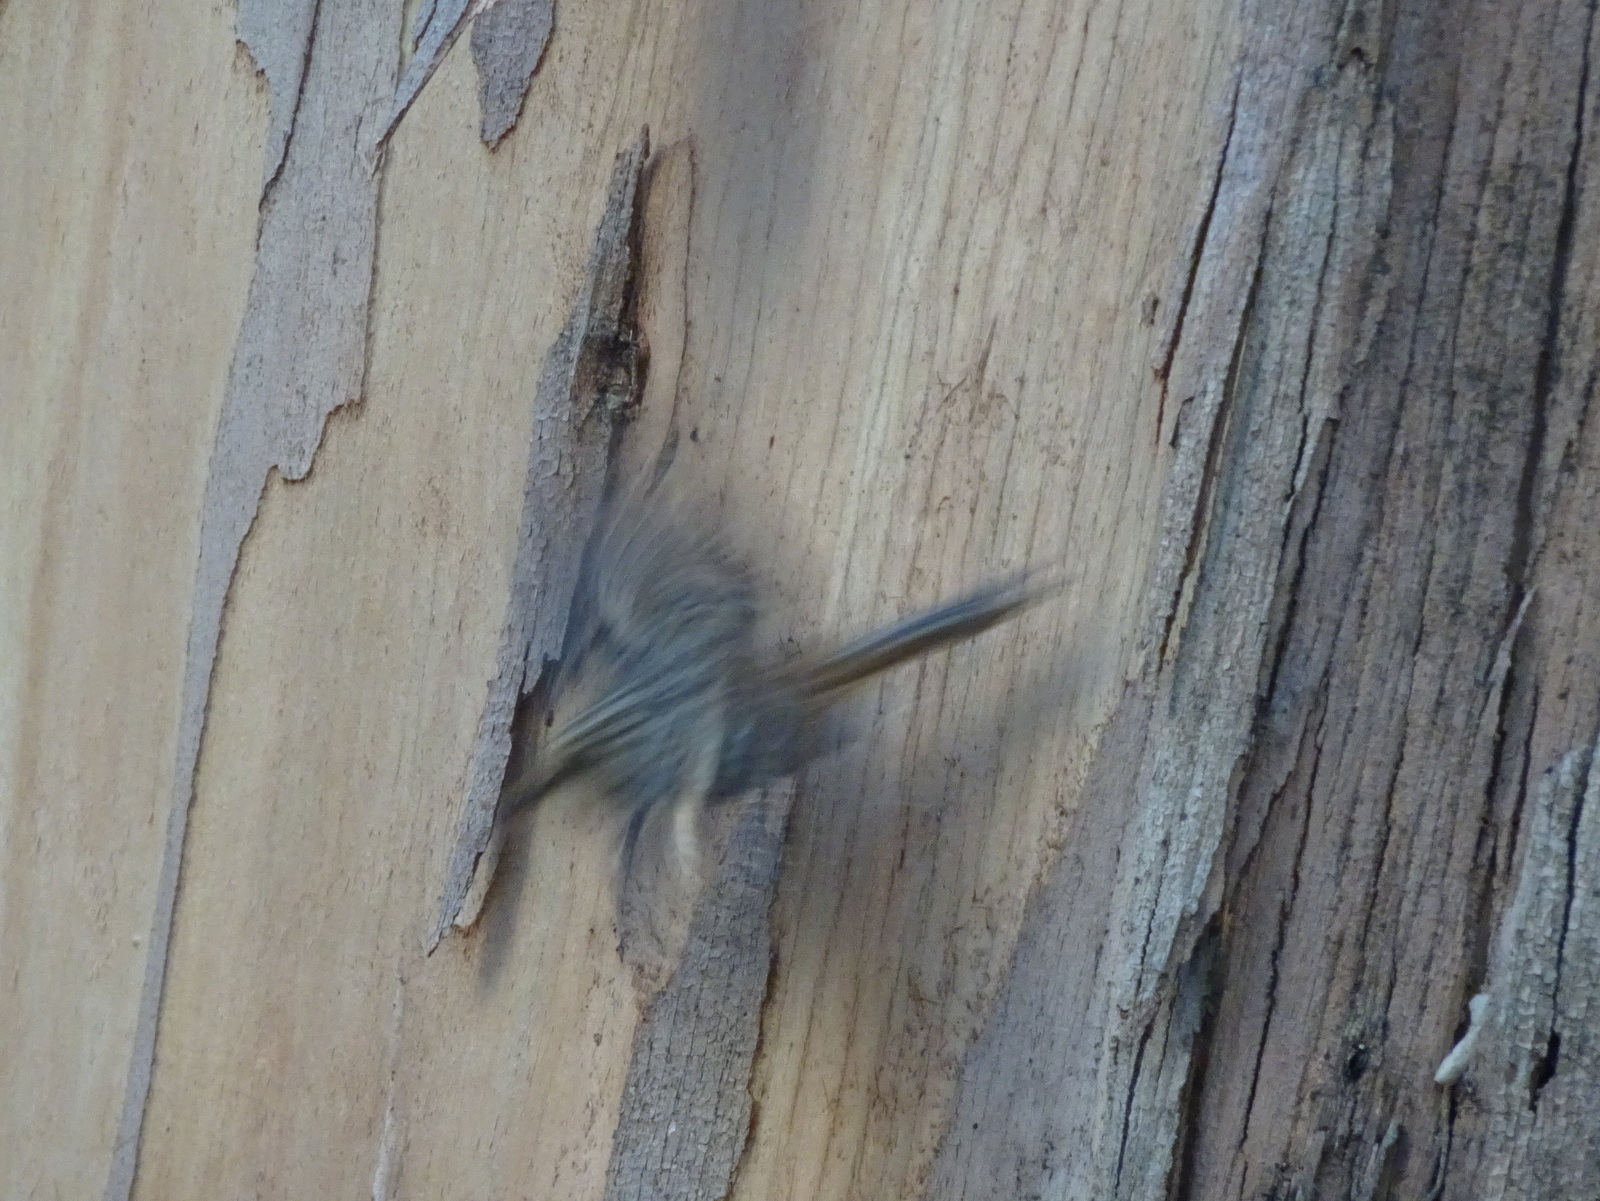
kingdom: Animalia
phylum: Chordata
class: Aves
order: Passeriformes
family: Certhiidae
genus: Certhia
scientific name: Certhia americana
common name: Brown creeper
